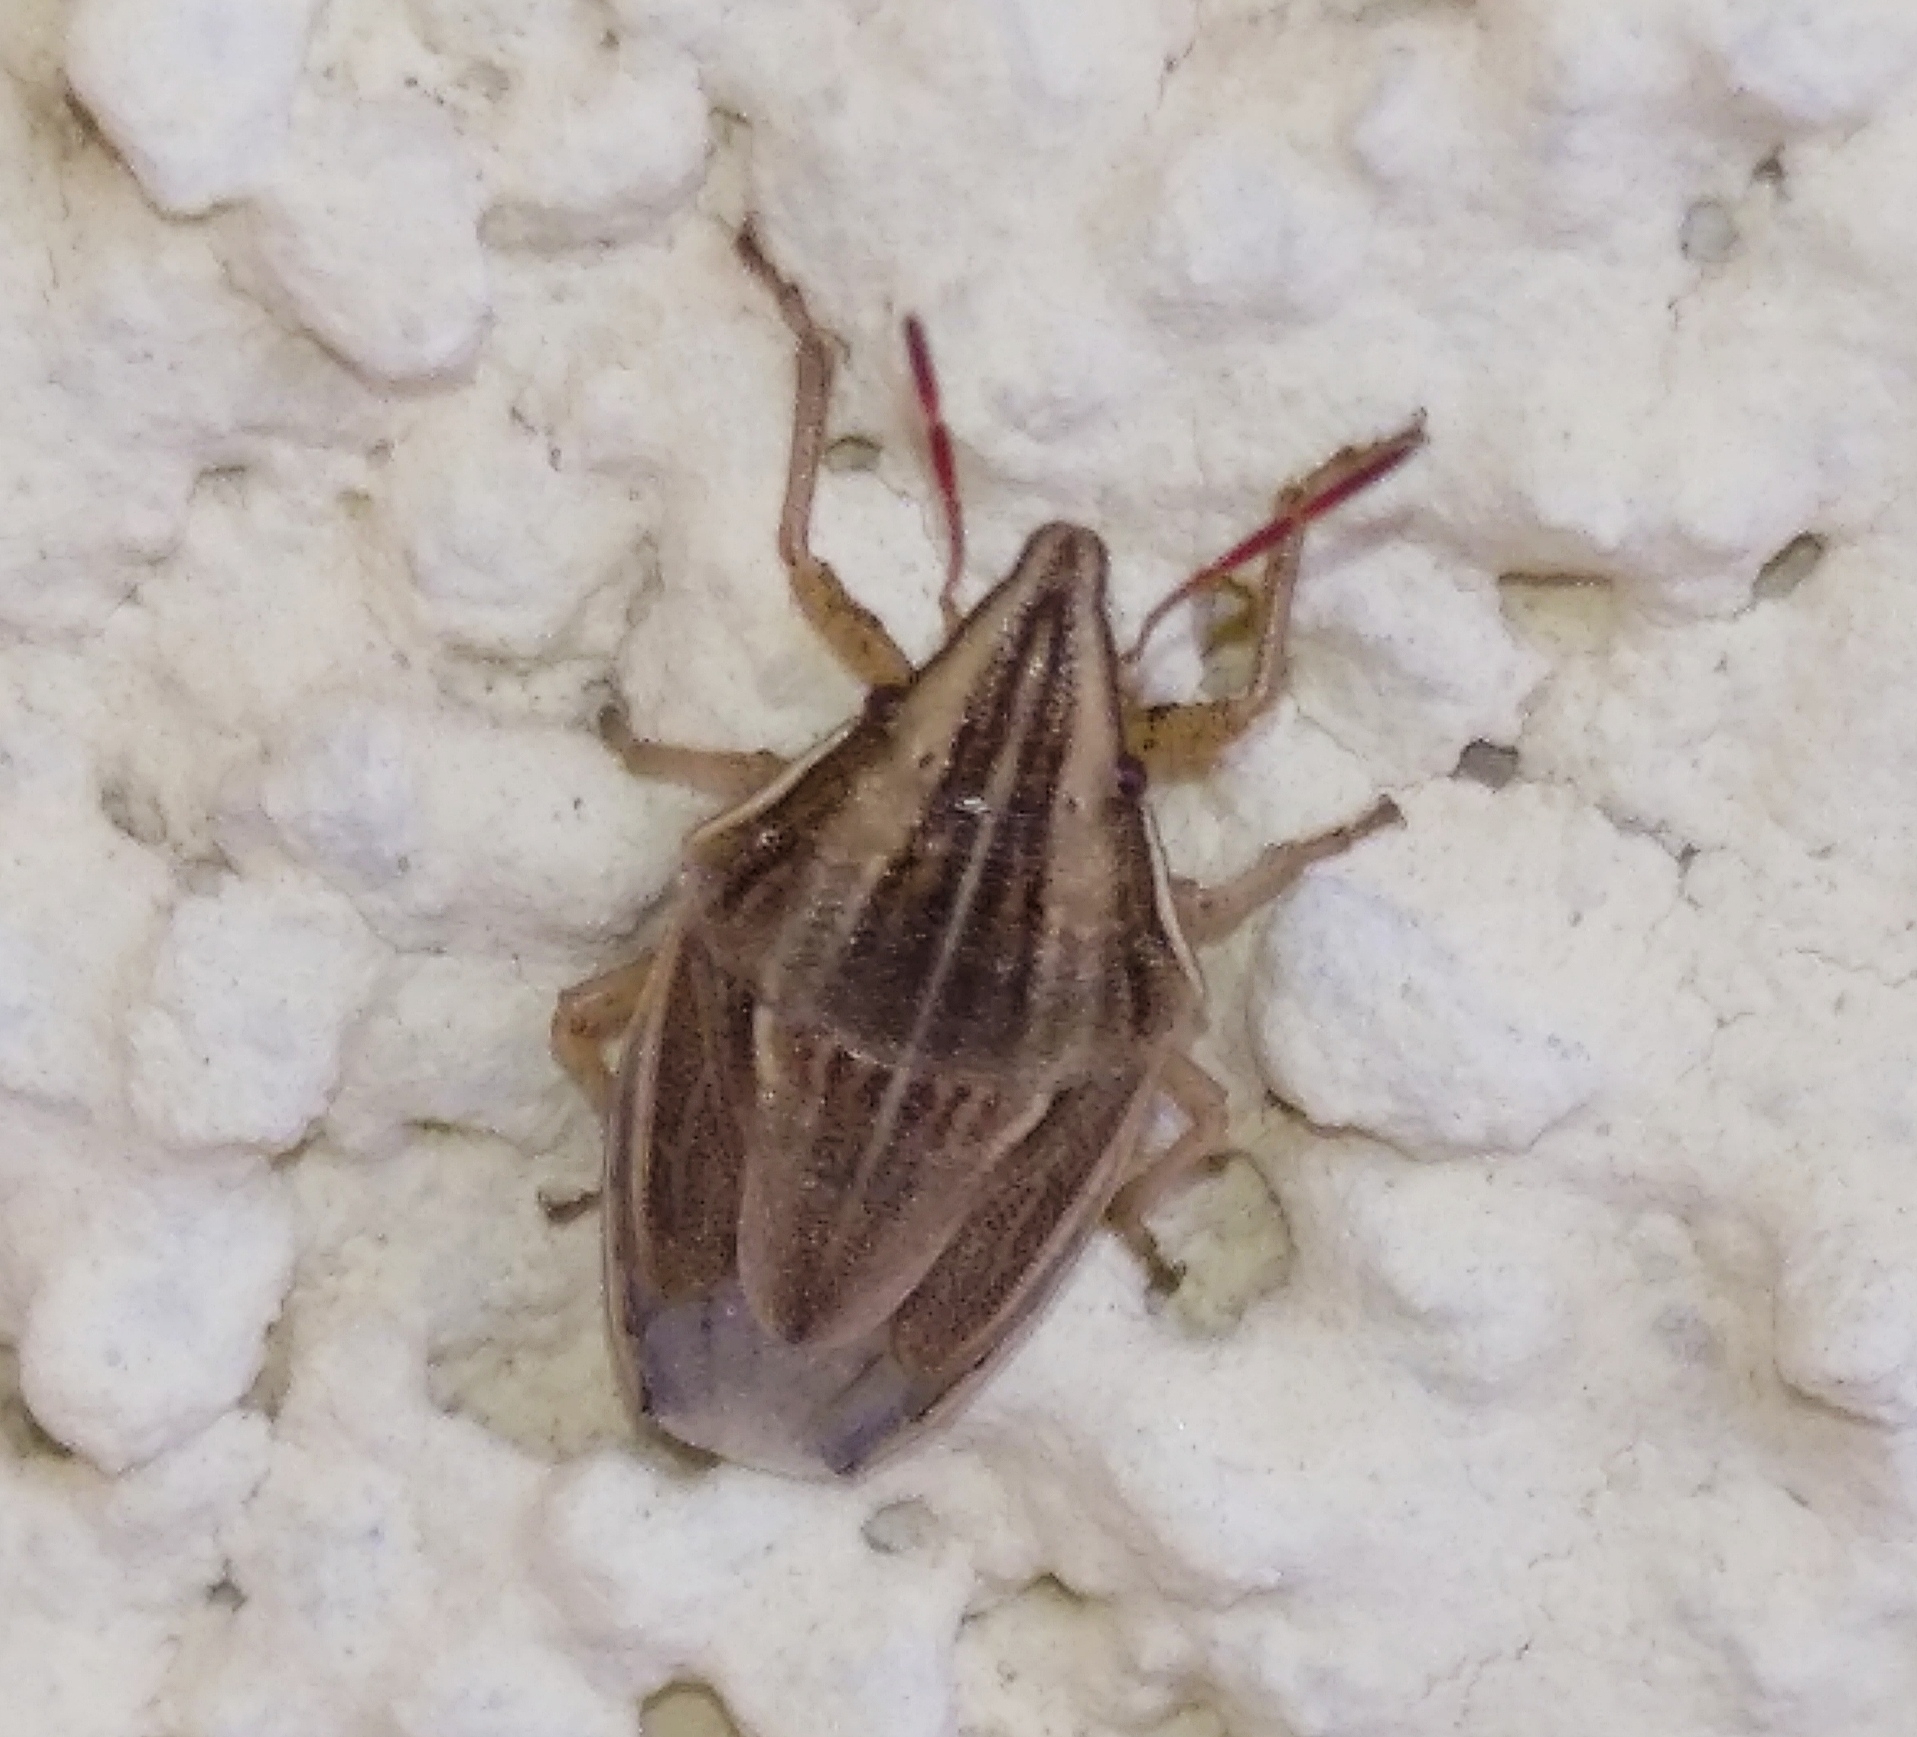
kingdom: Animalia
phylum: Arthropoda
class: Insecta
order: Hemiptera
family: Pentatomidae
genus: Aelia
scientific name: Aelia acuminata
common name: Bishop's mitre
